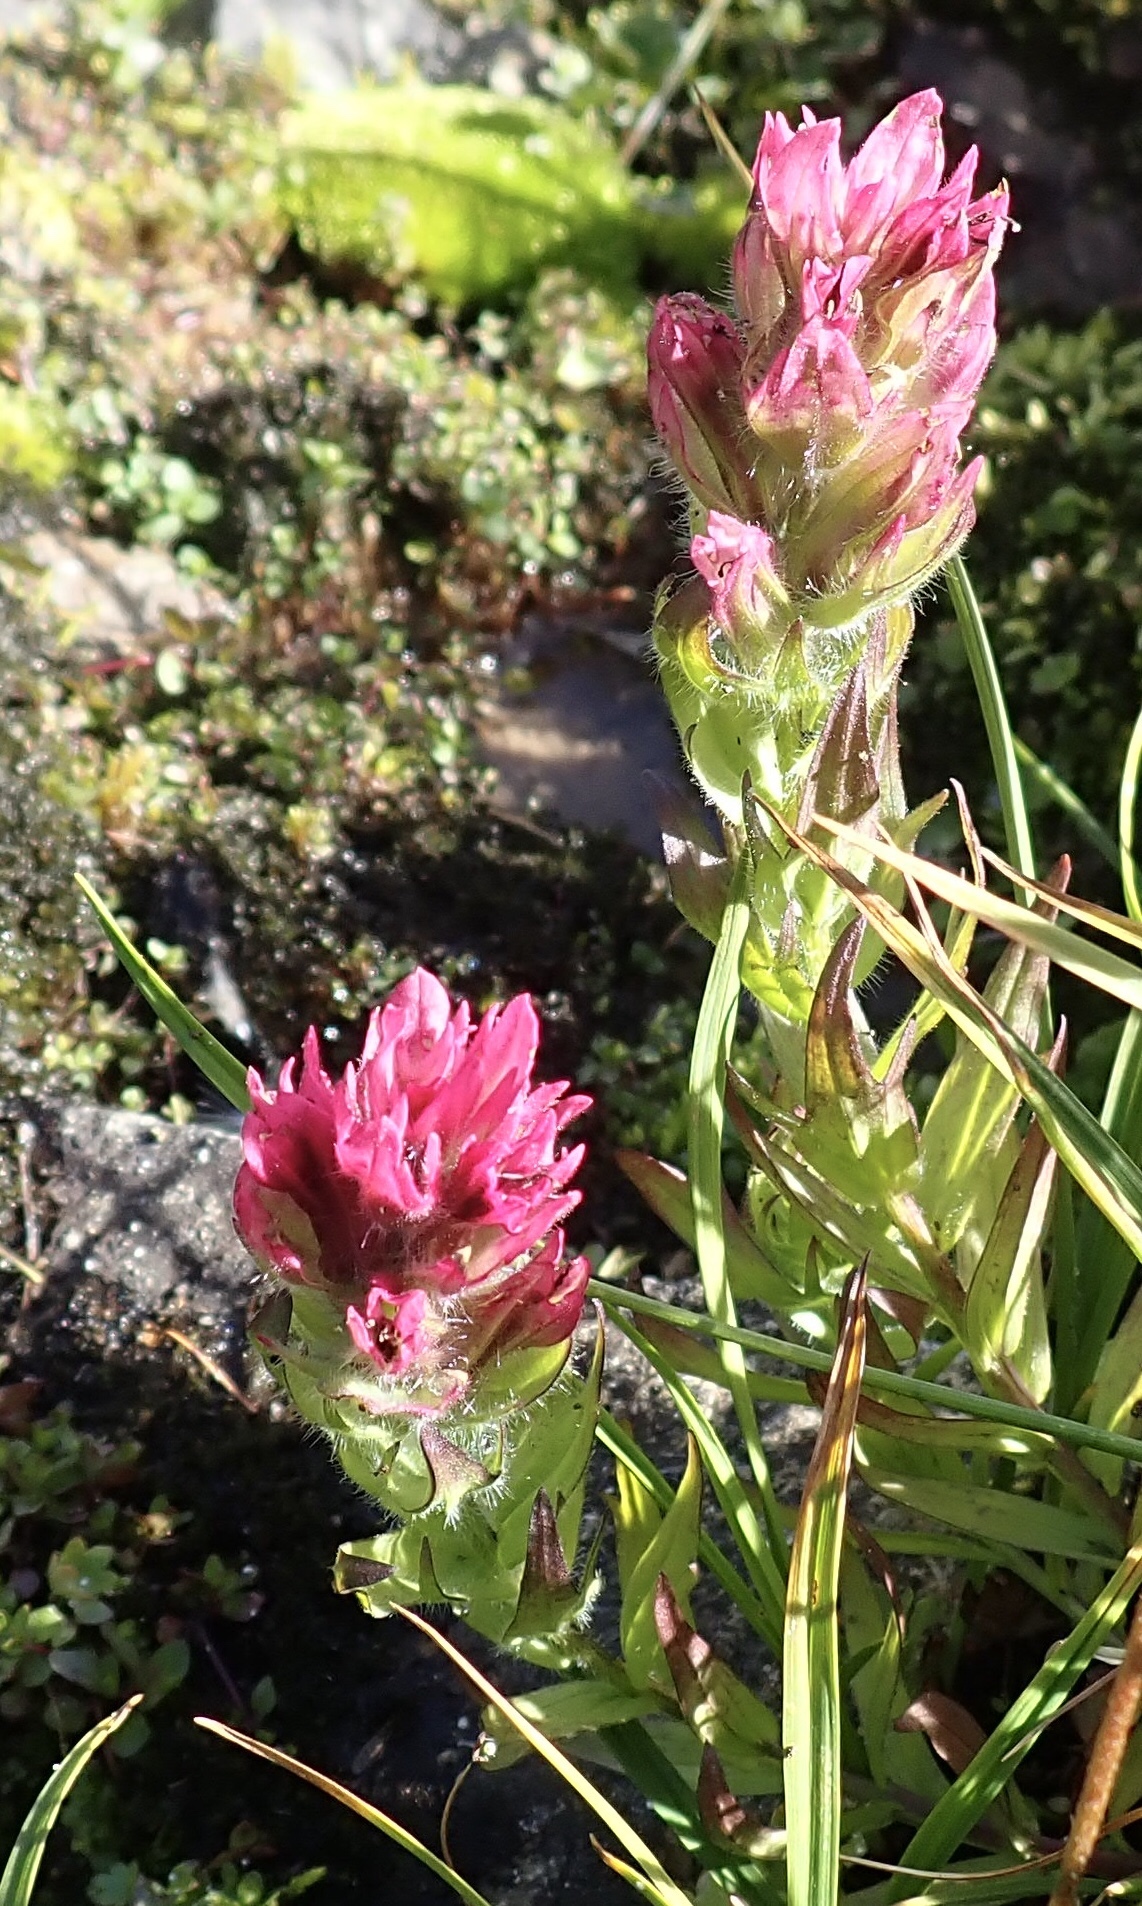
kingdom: Plantae
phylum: Tracheophyta
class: Magnoliopsida
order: Lamiales
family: Orobanchaceae
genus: Castilleja
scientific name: Castilleja parviflora
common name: Mountain paintbrush
